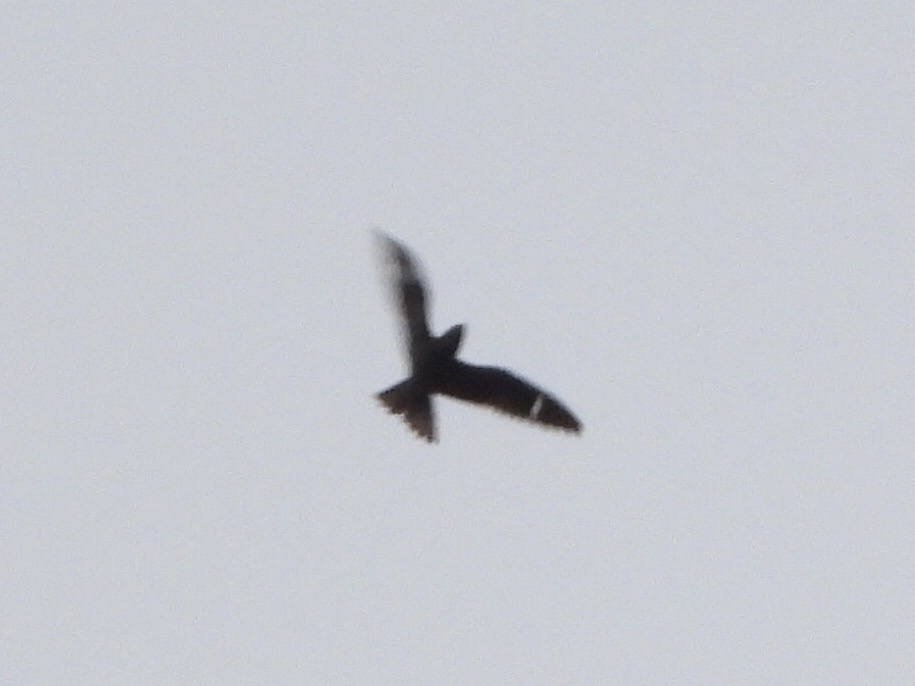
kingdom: Animalia
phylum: Chordata
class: Aves
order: Caprimulgiformes
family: Caprimulgidae
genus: Chordeiles
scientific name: Chordeiles minor
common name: Common nighthawk
